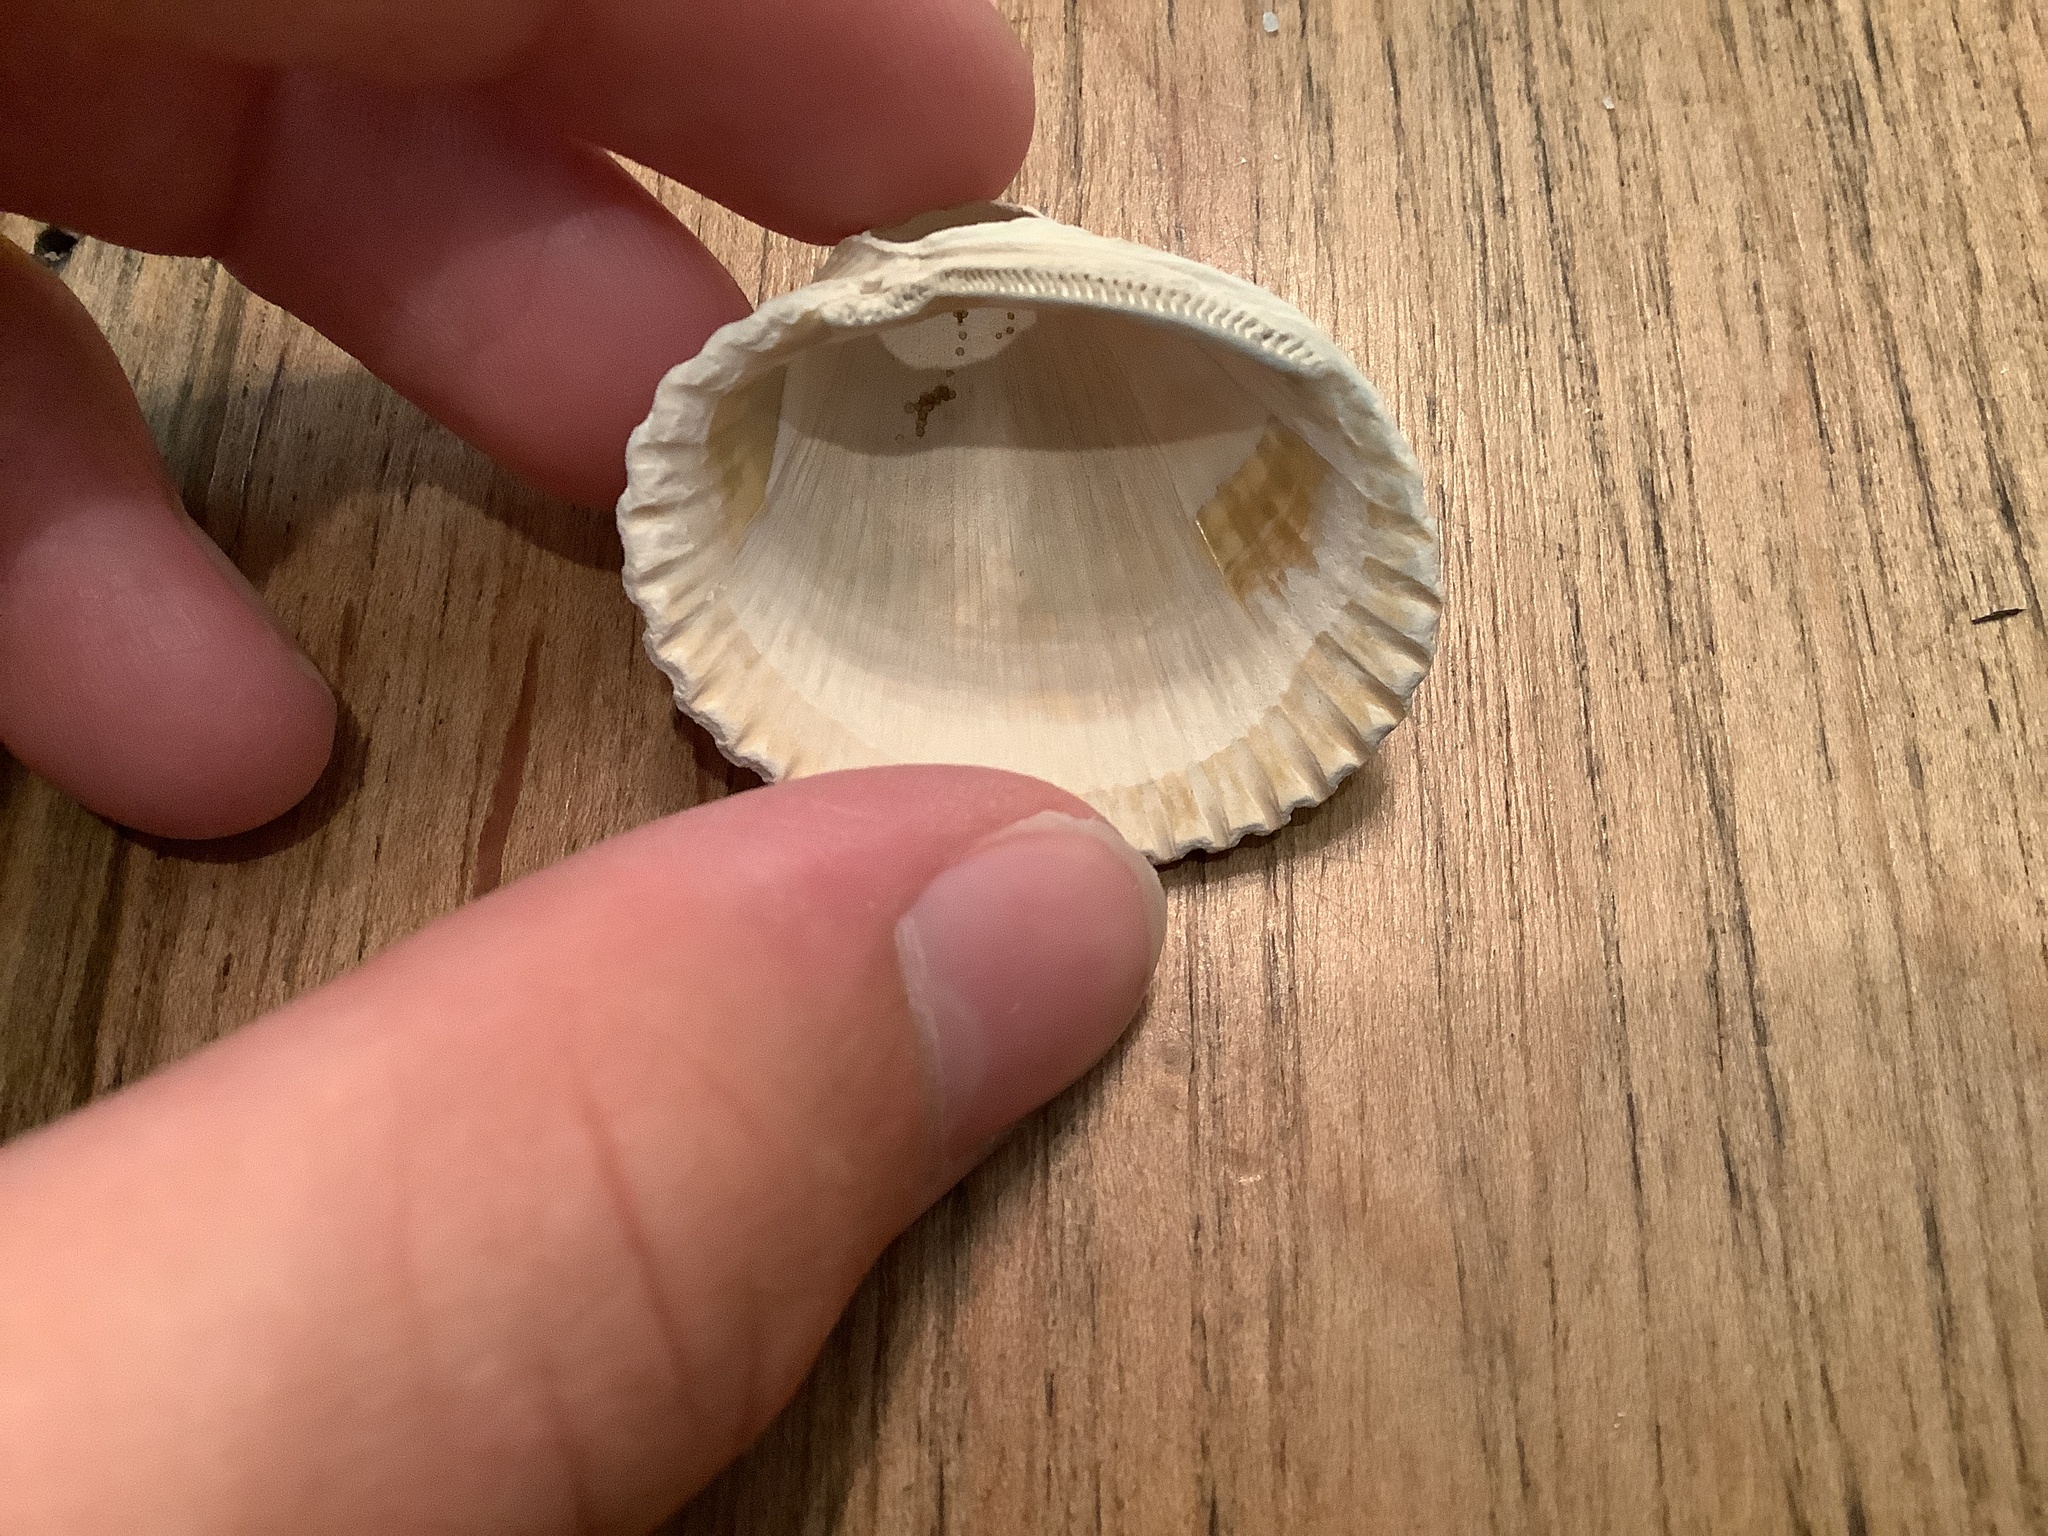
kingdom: Animalia
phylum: Mollusca
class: Bivalvia
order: Arcida
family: Arcidae
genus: Lunarca
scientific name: Lunarca ovalis
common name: Blood ark
